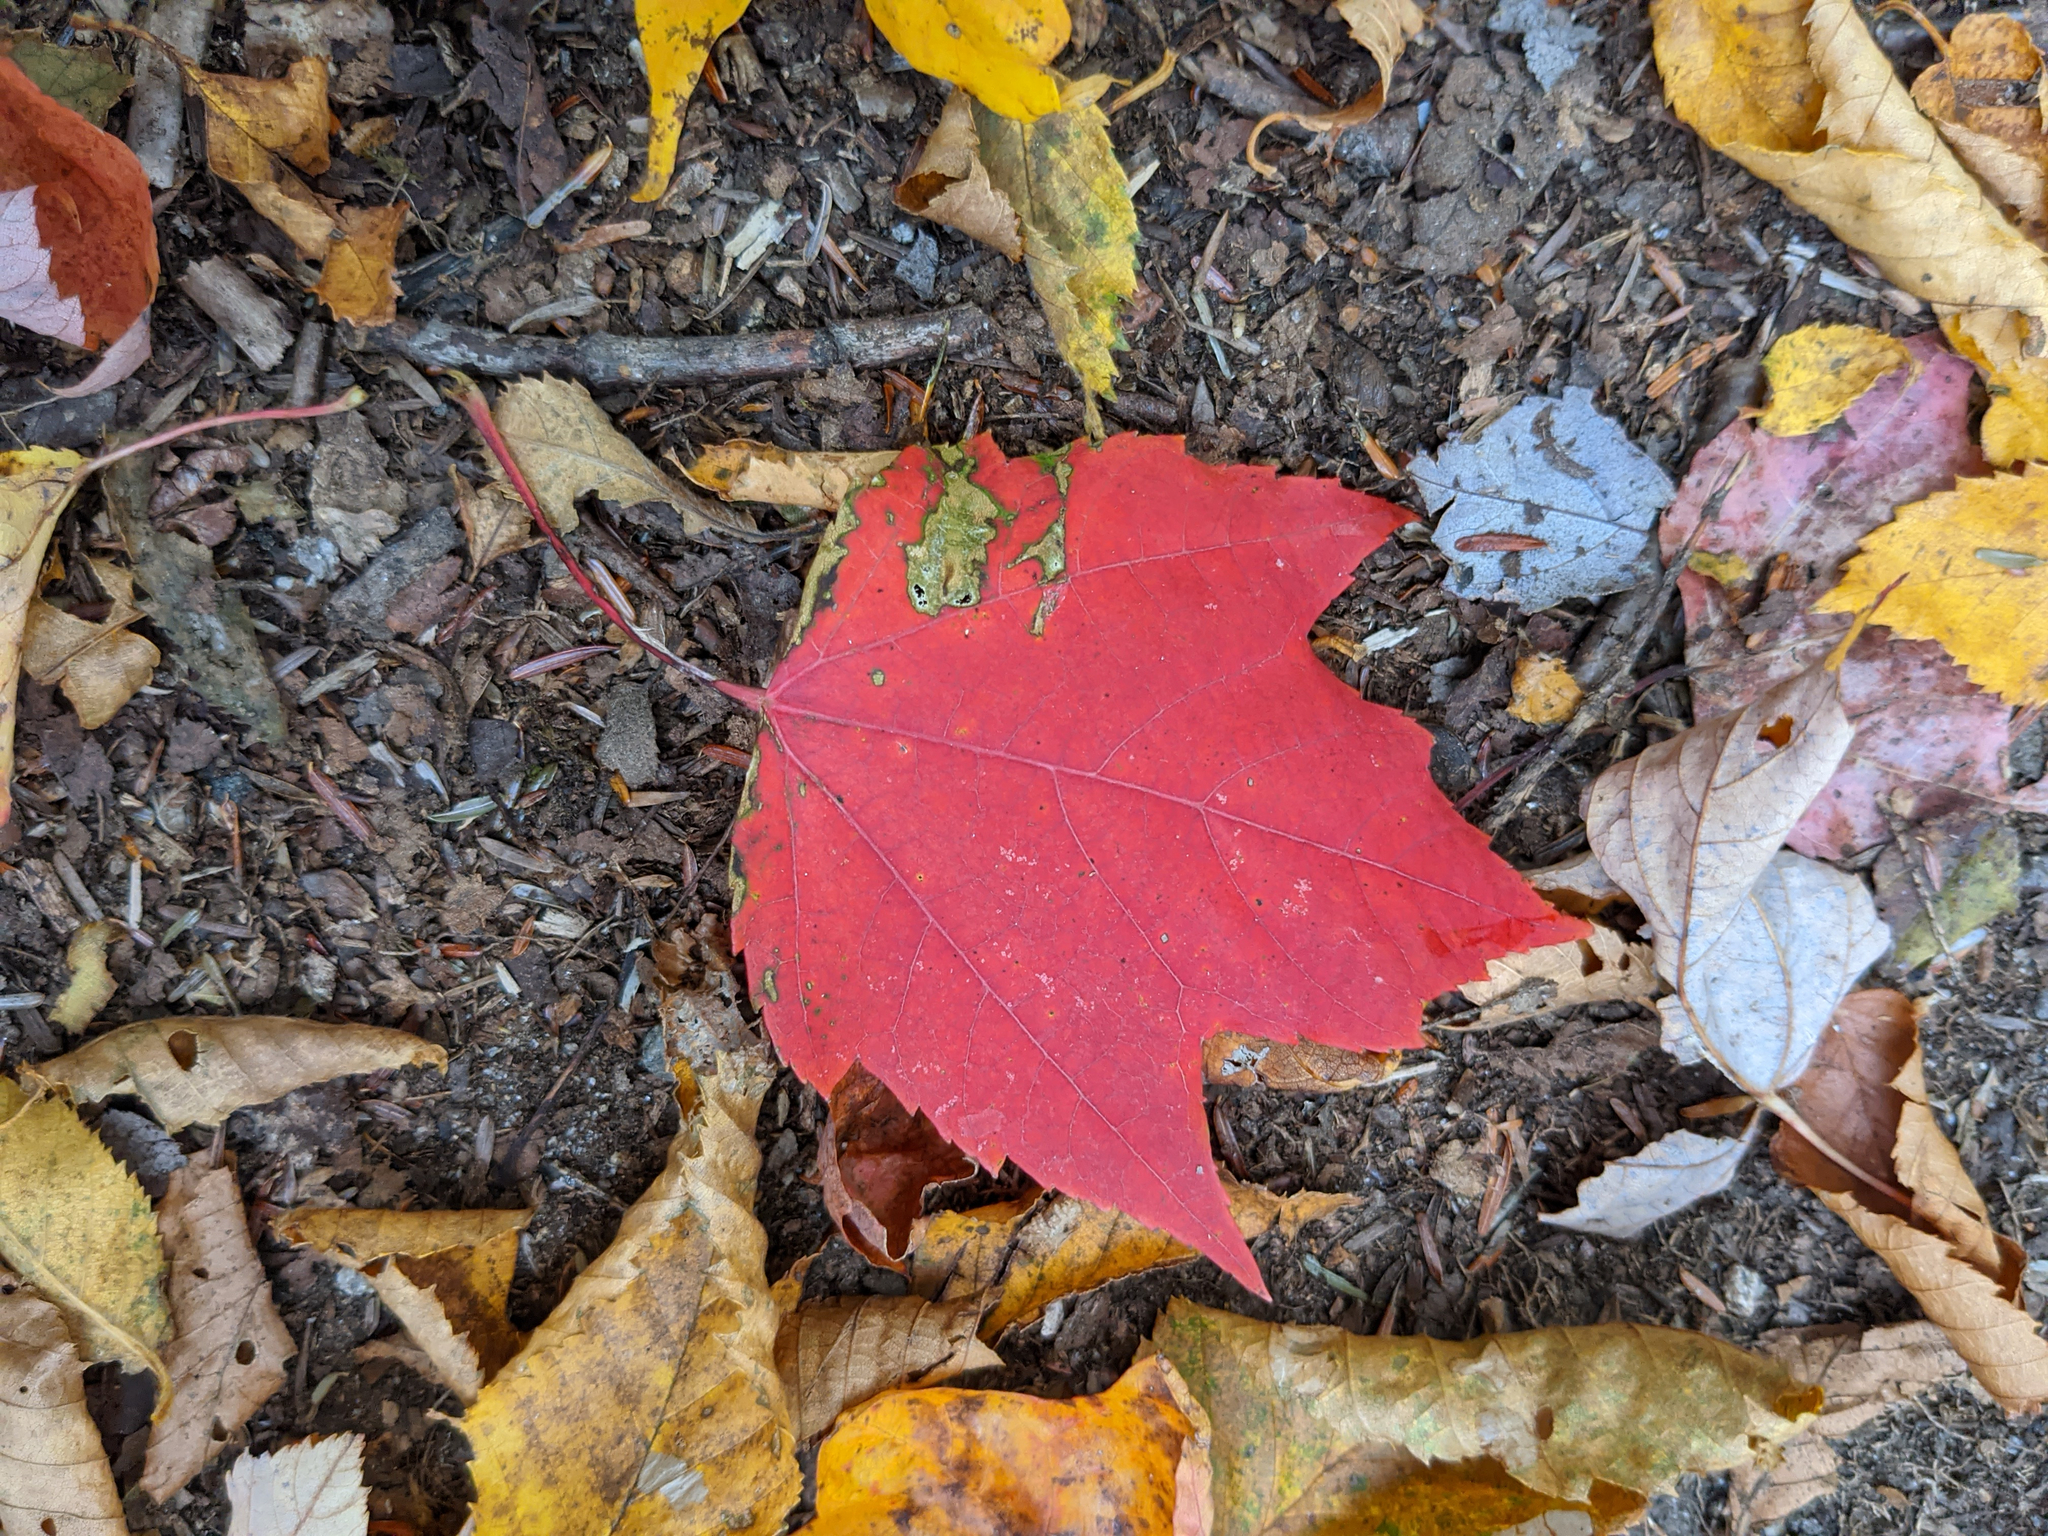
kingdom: Plantae
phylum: Tracheophyta
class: Magnoliopsida
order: Sapindales
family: Sapindaceae
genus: Acer
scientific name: Acer rubrum
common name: Red maple
